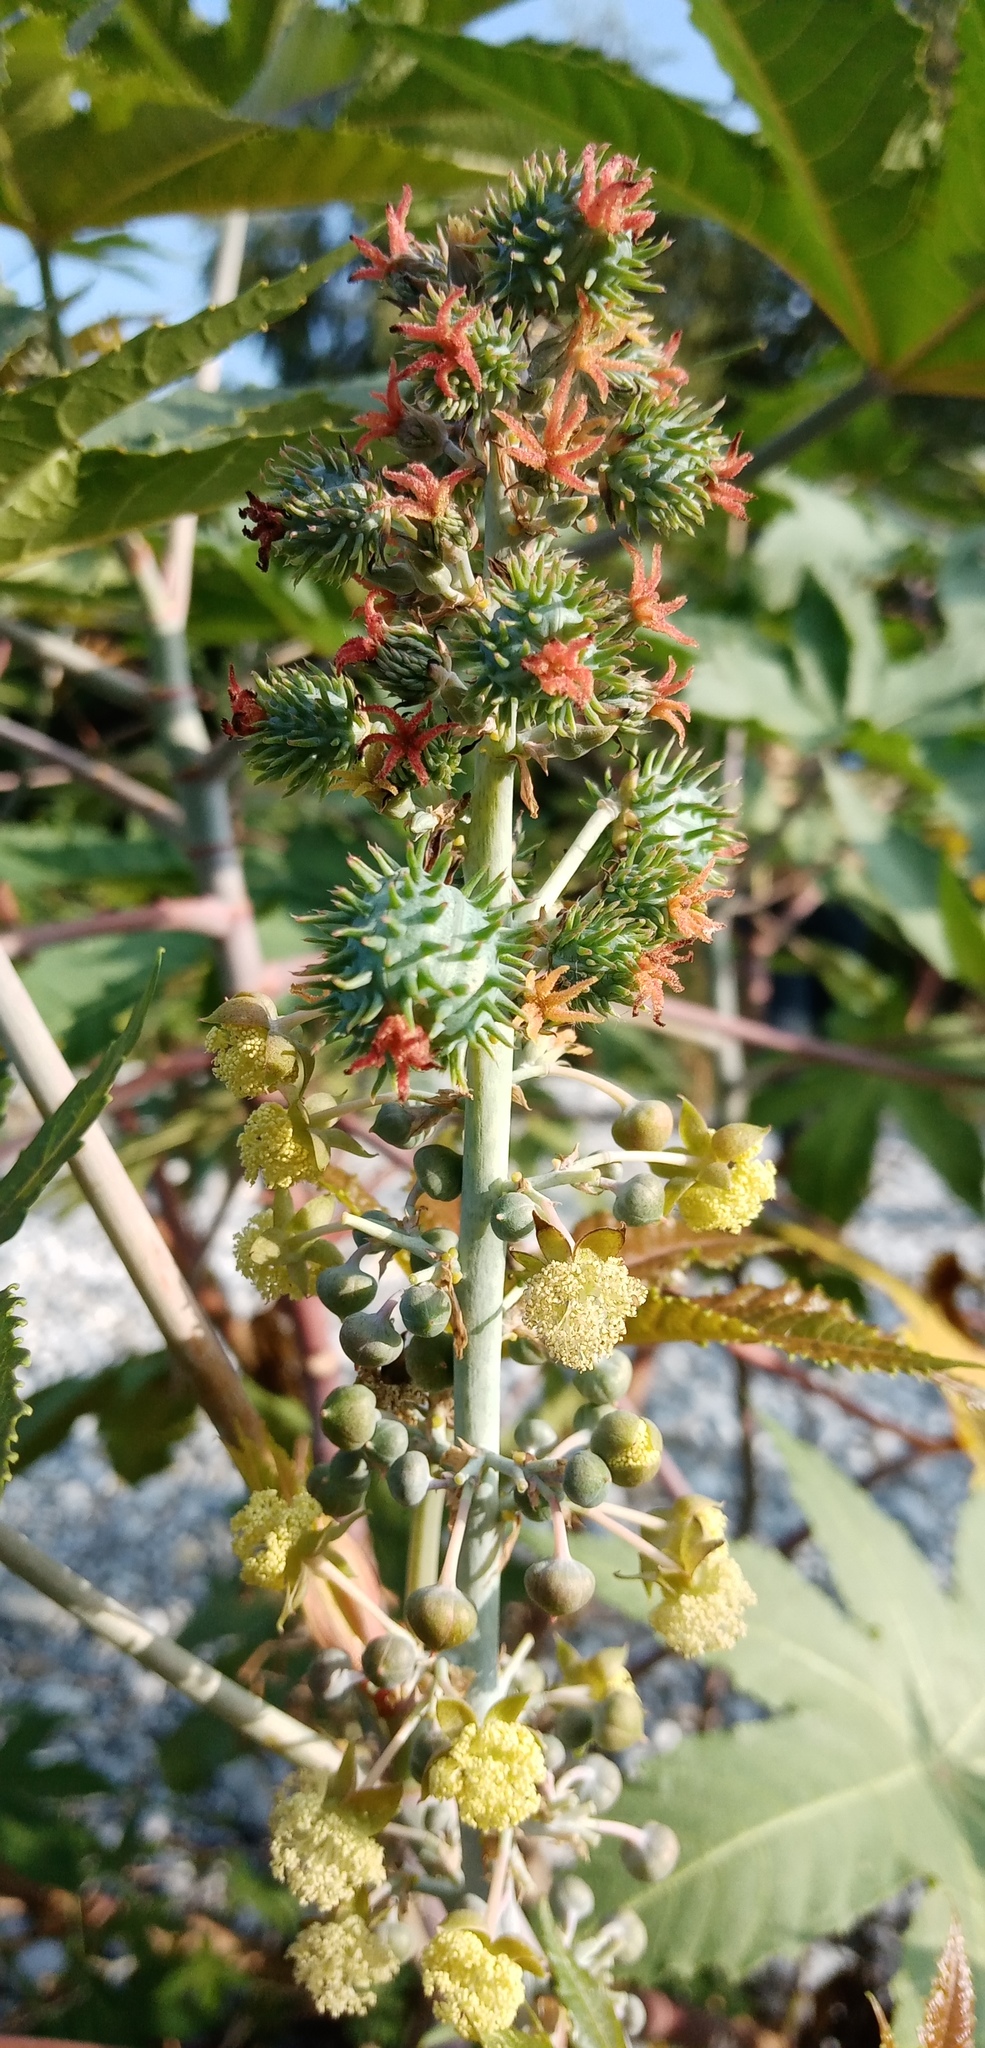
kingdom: Plantae
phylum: Tracheophyta
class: Magnoliopsida
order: Malpighiales
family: Euphorbiaceae
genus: Ricinus
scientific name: Ricinus communis
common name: Castor-oil-plant
